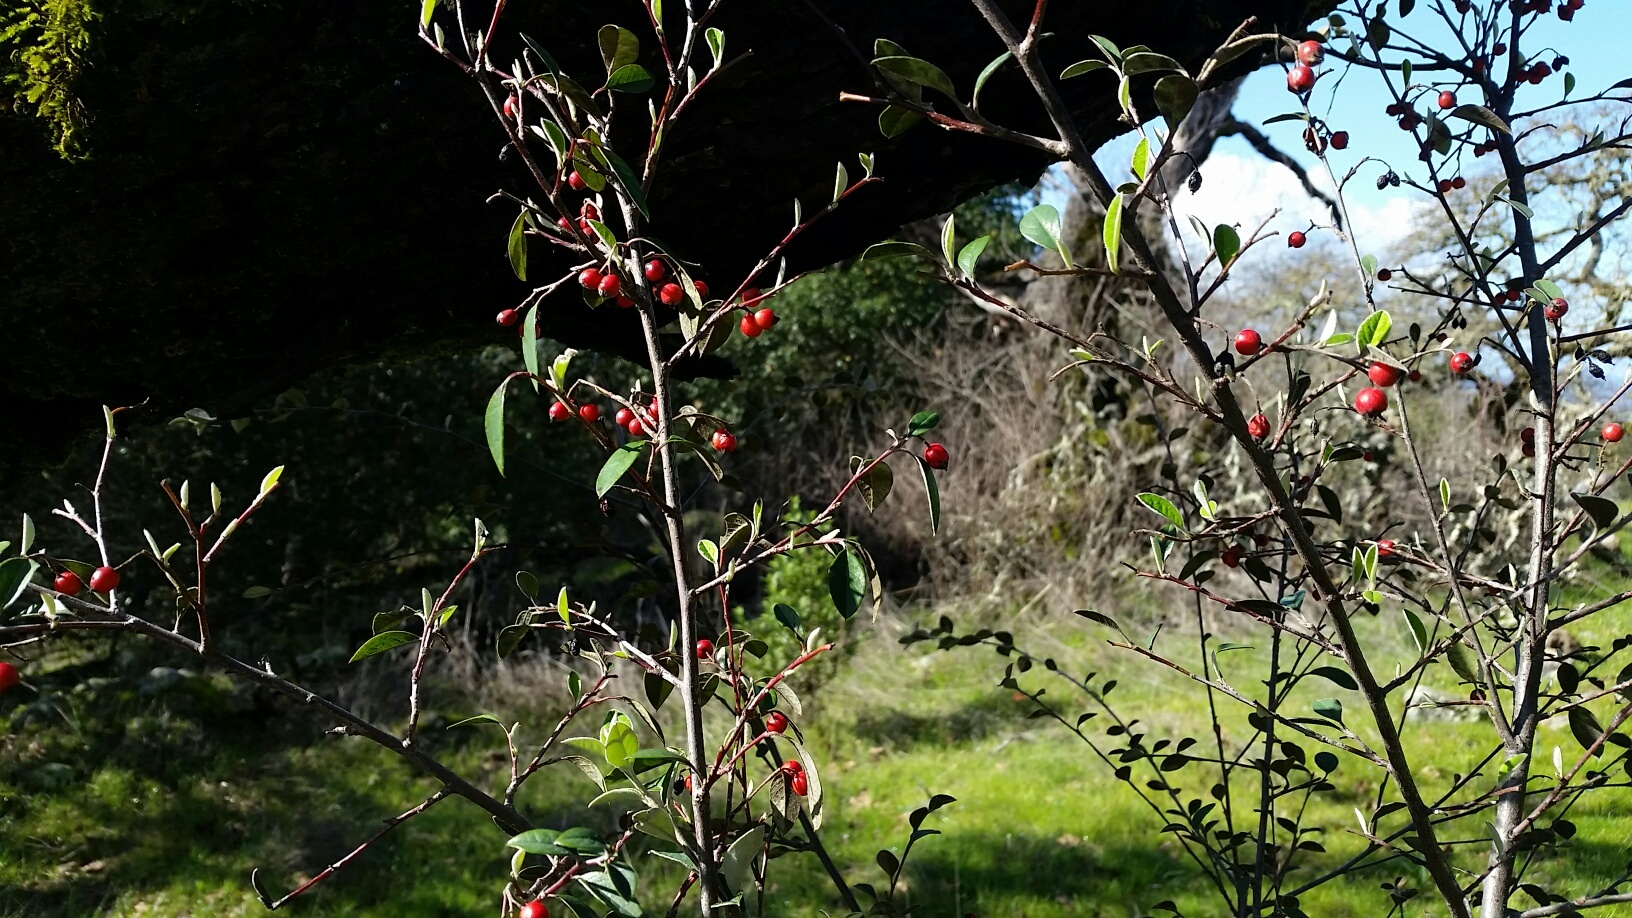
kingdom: Plantae
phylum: Tracheophyta
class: Magnoliopsida
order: Rosales
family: Rosaceae
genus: Cotoneaster
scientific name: Cotoneaster pannosus
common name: Silverleaf cotoneaster
